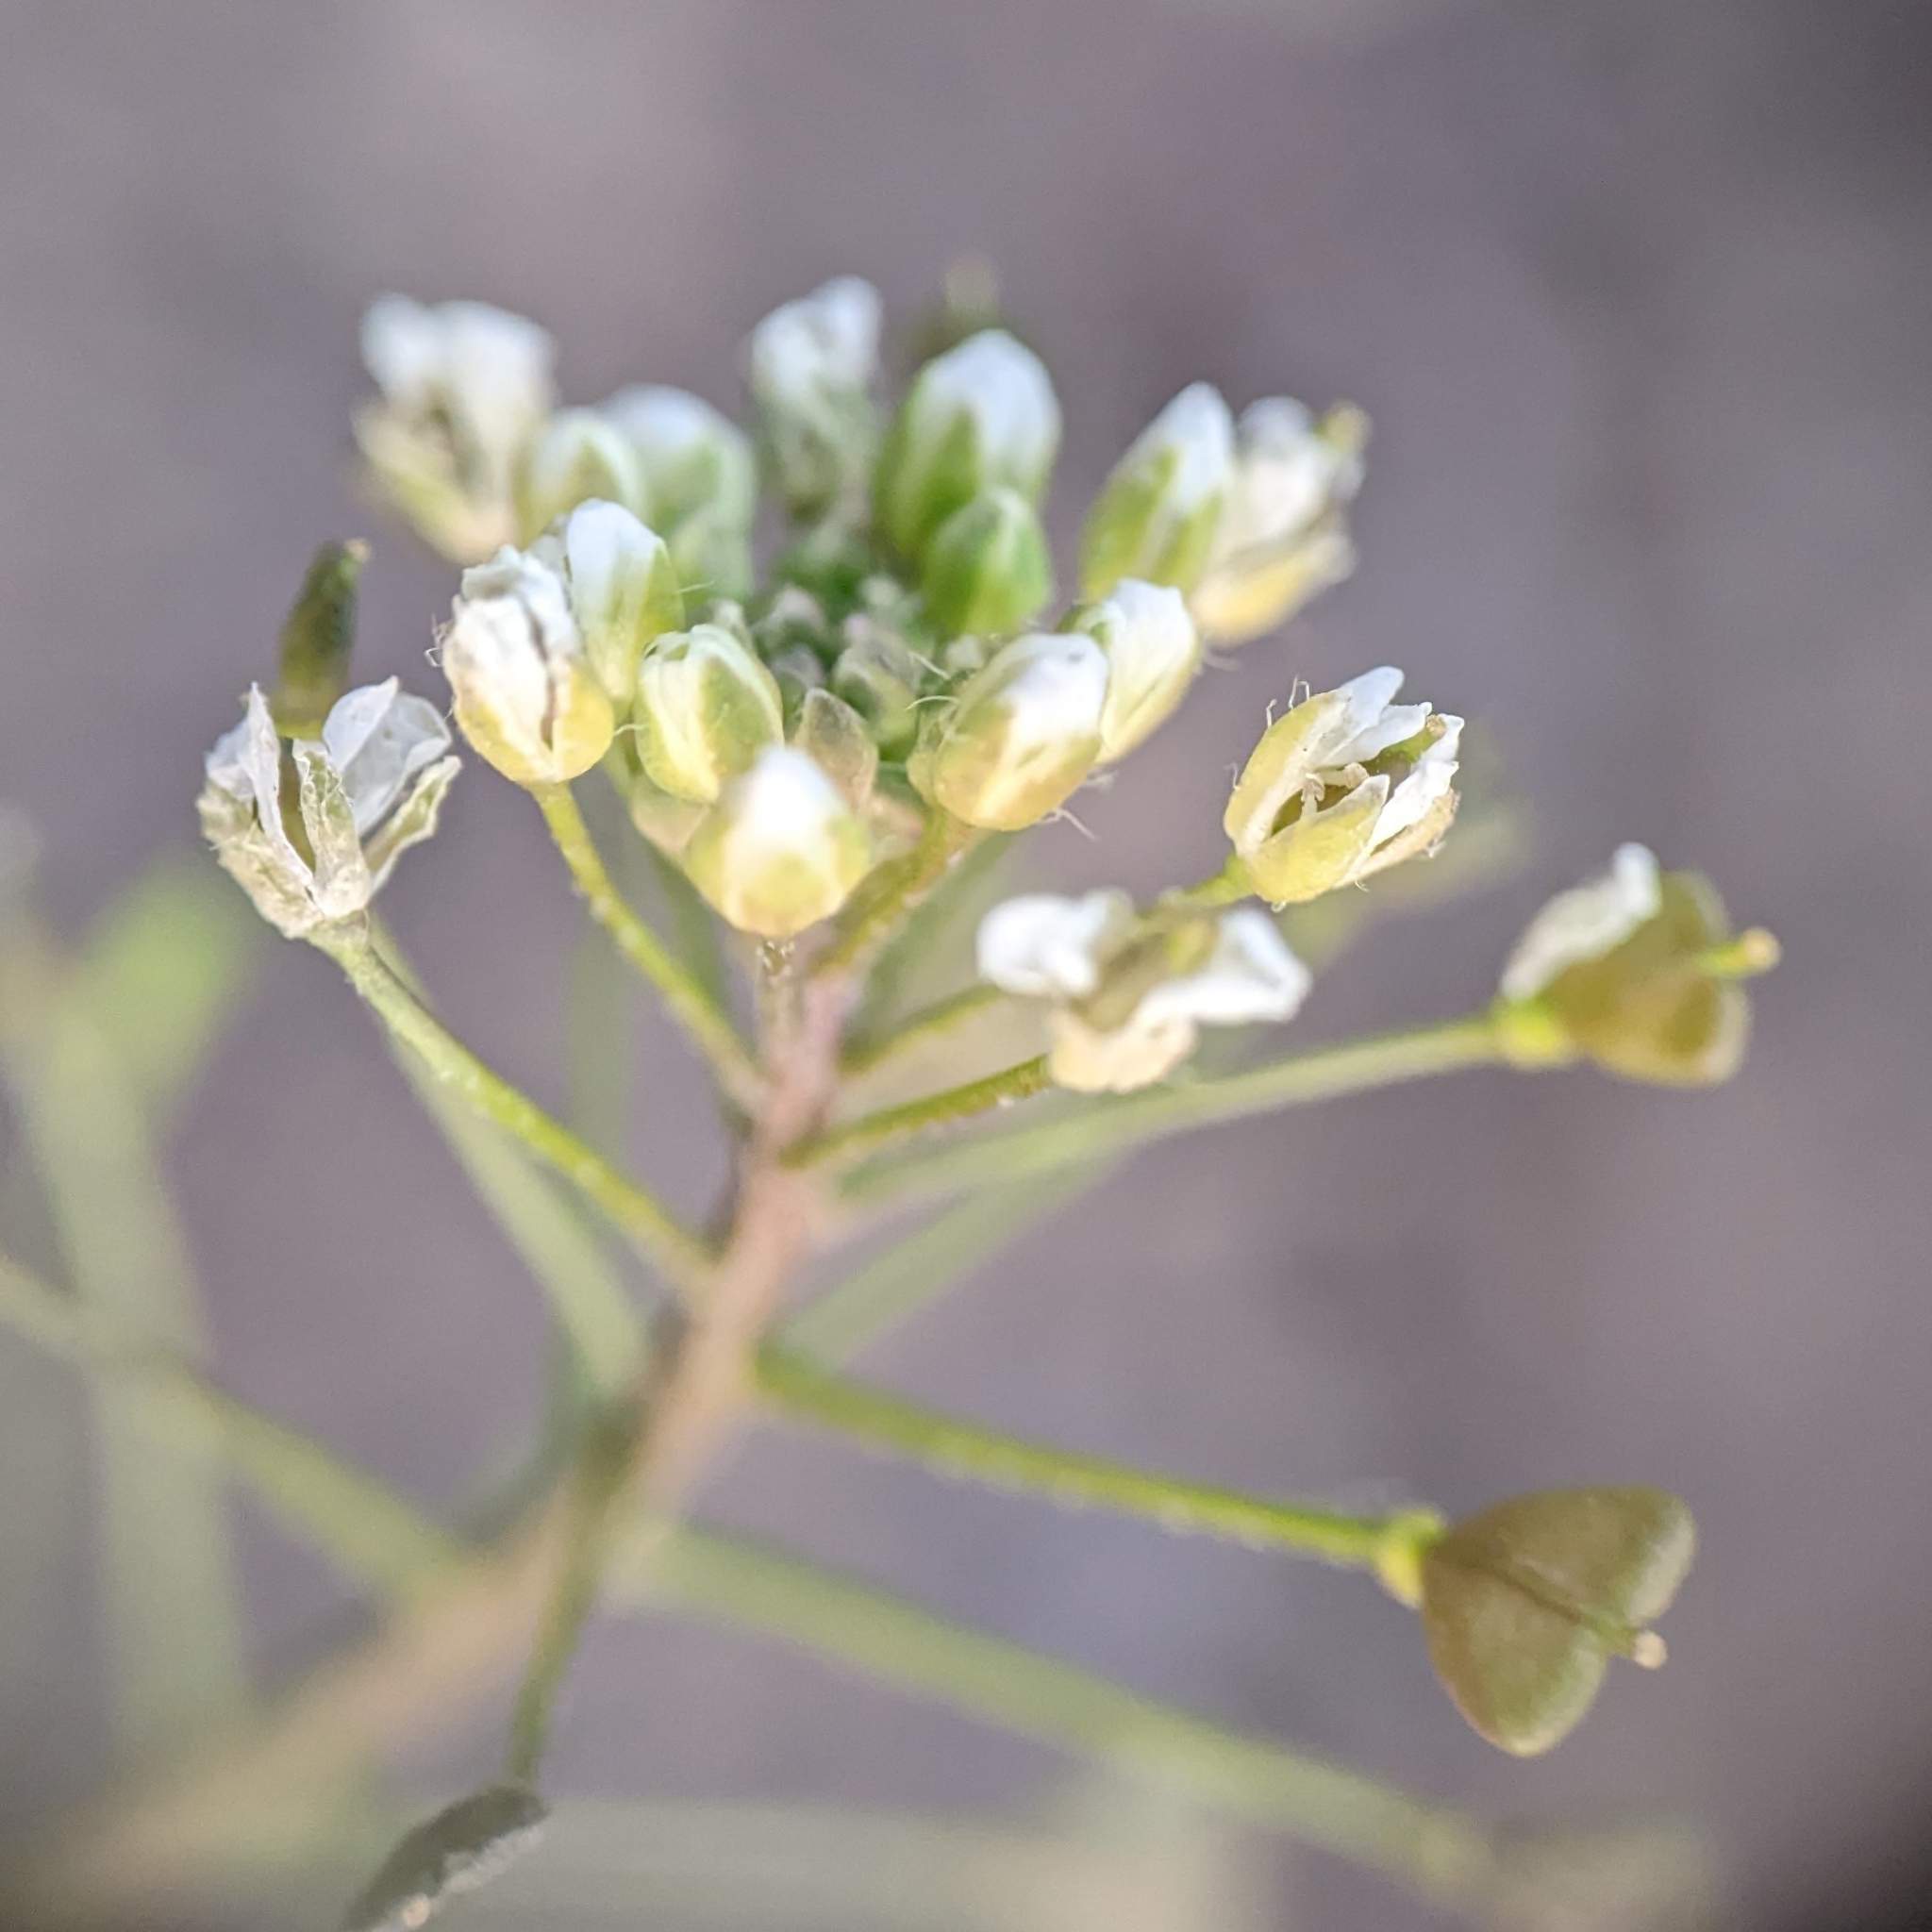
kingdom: Plantae
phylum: Tracheophyta
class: Magnoliopsida
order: Brassicales
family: Brassicaceae
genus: Capsella
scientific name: Capsella bursa-pastoris
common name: Shepherd's purse
